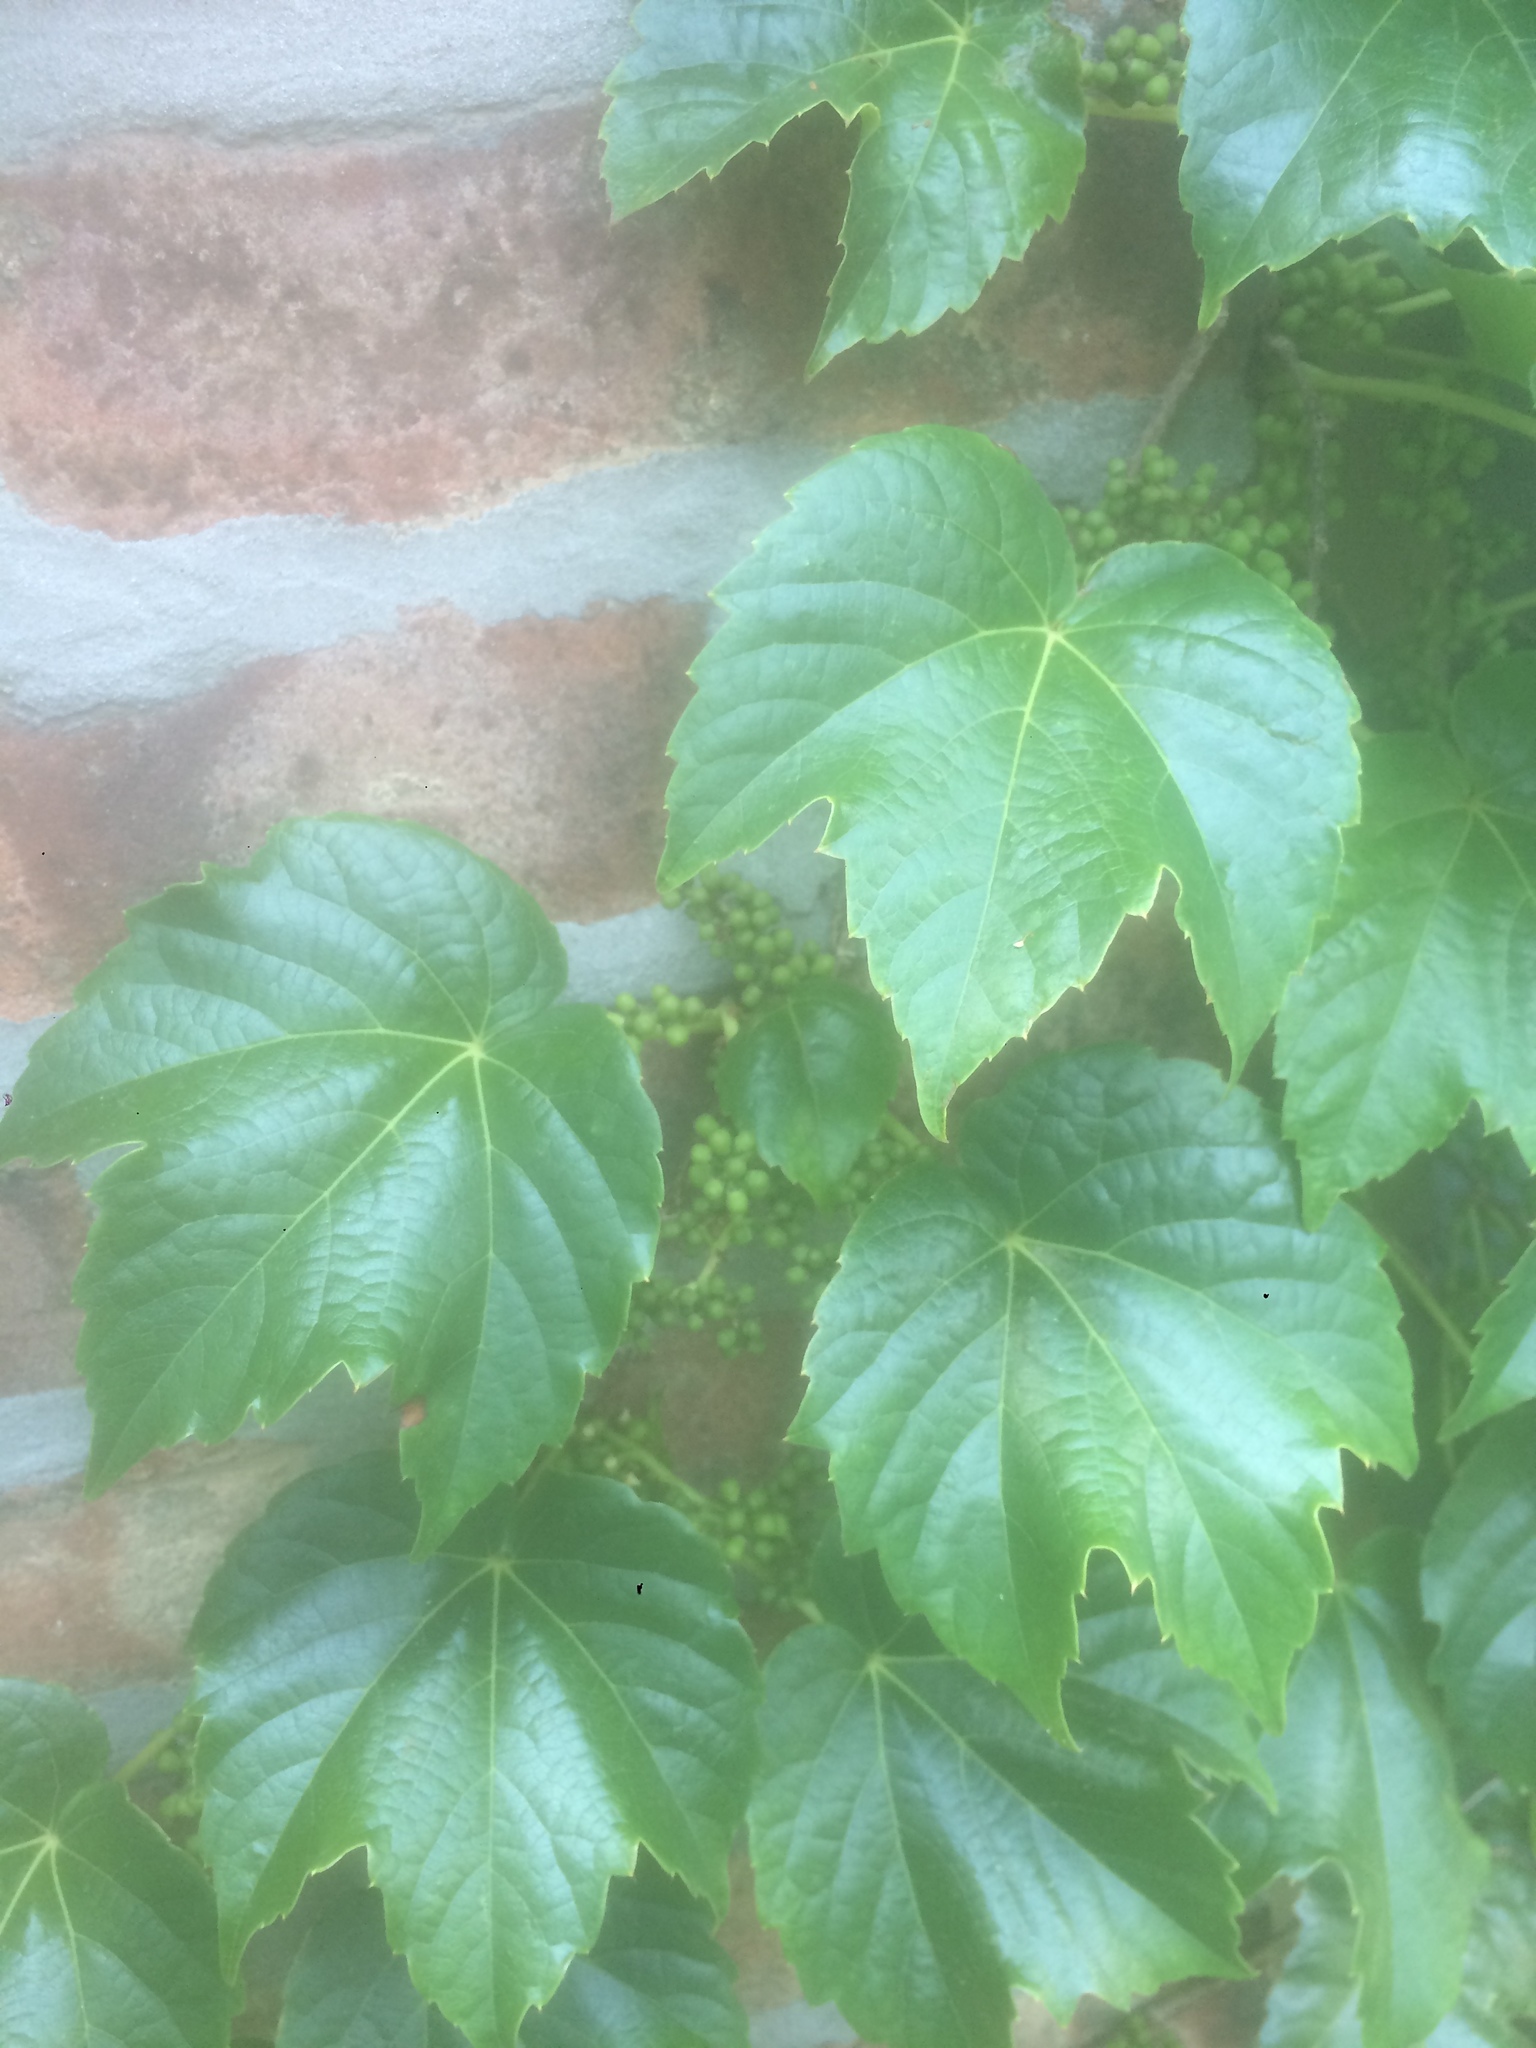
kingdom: Plantae
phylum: Tracheophyta
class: Magnoliopsida
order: Vitales
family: Vitaceae
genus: Parthenocissus
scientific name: Parthenocissus tricuspidata
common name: Boston ivy
